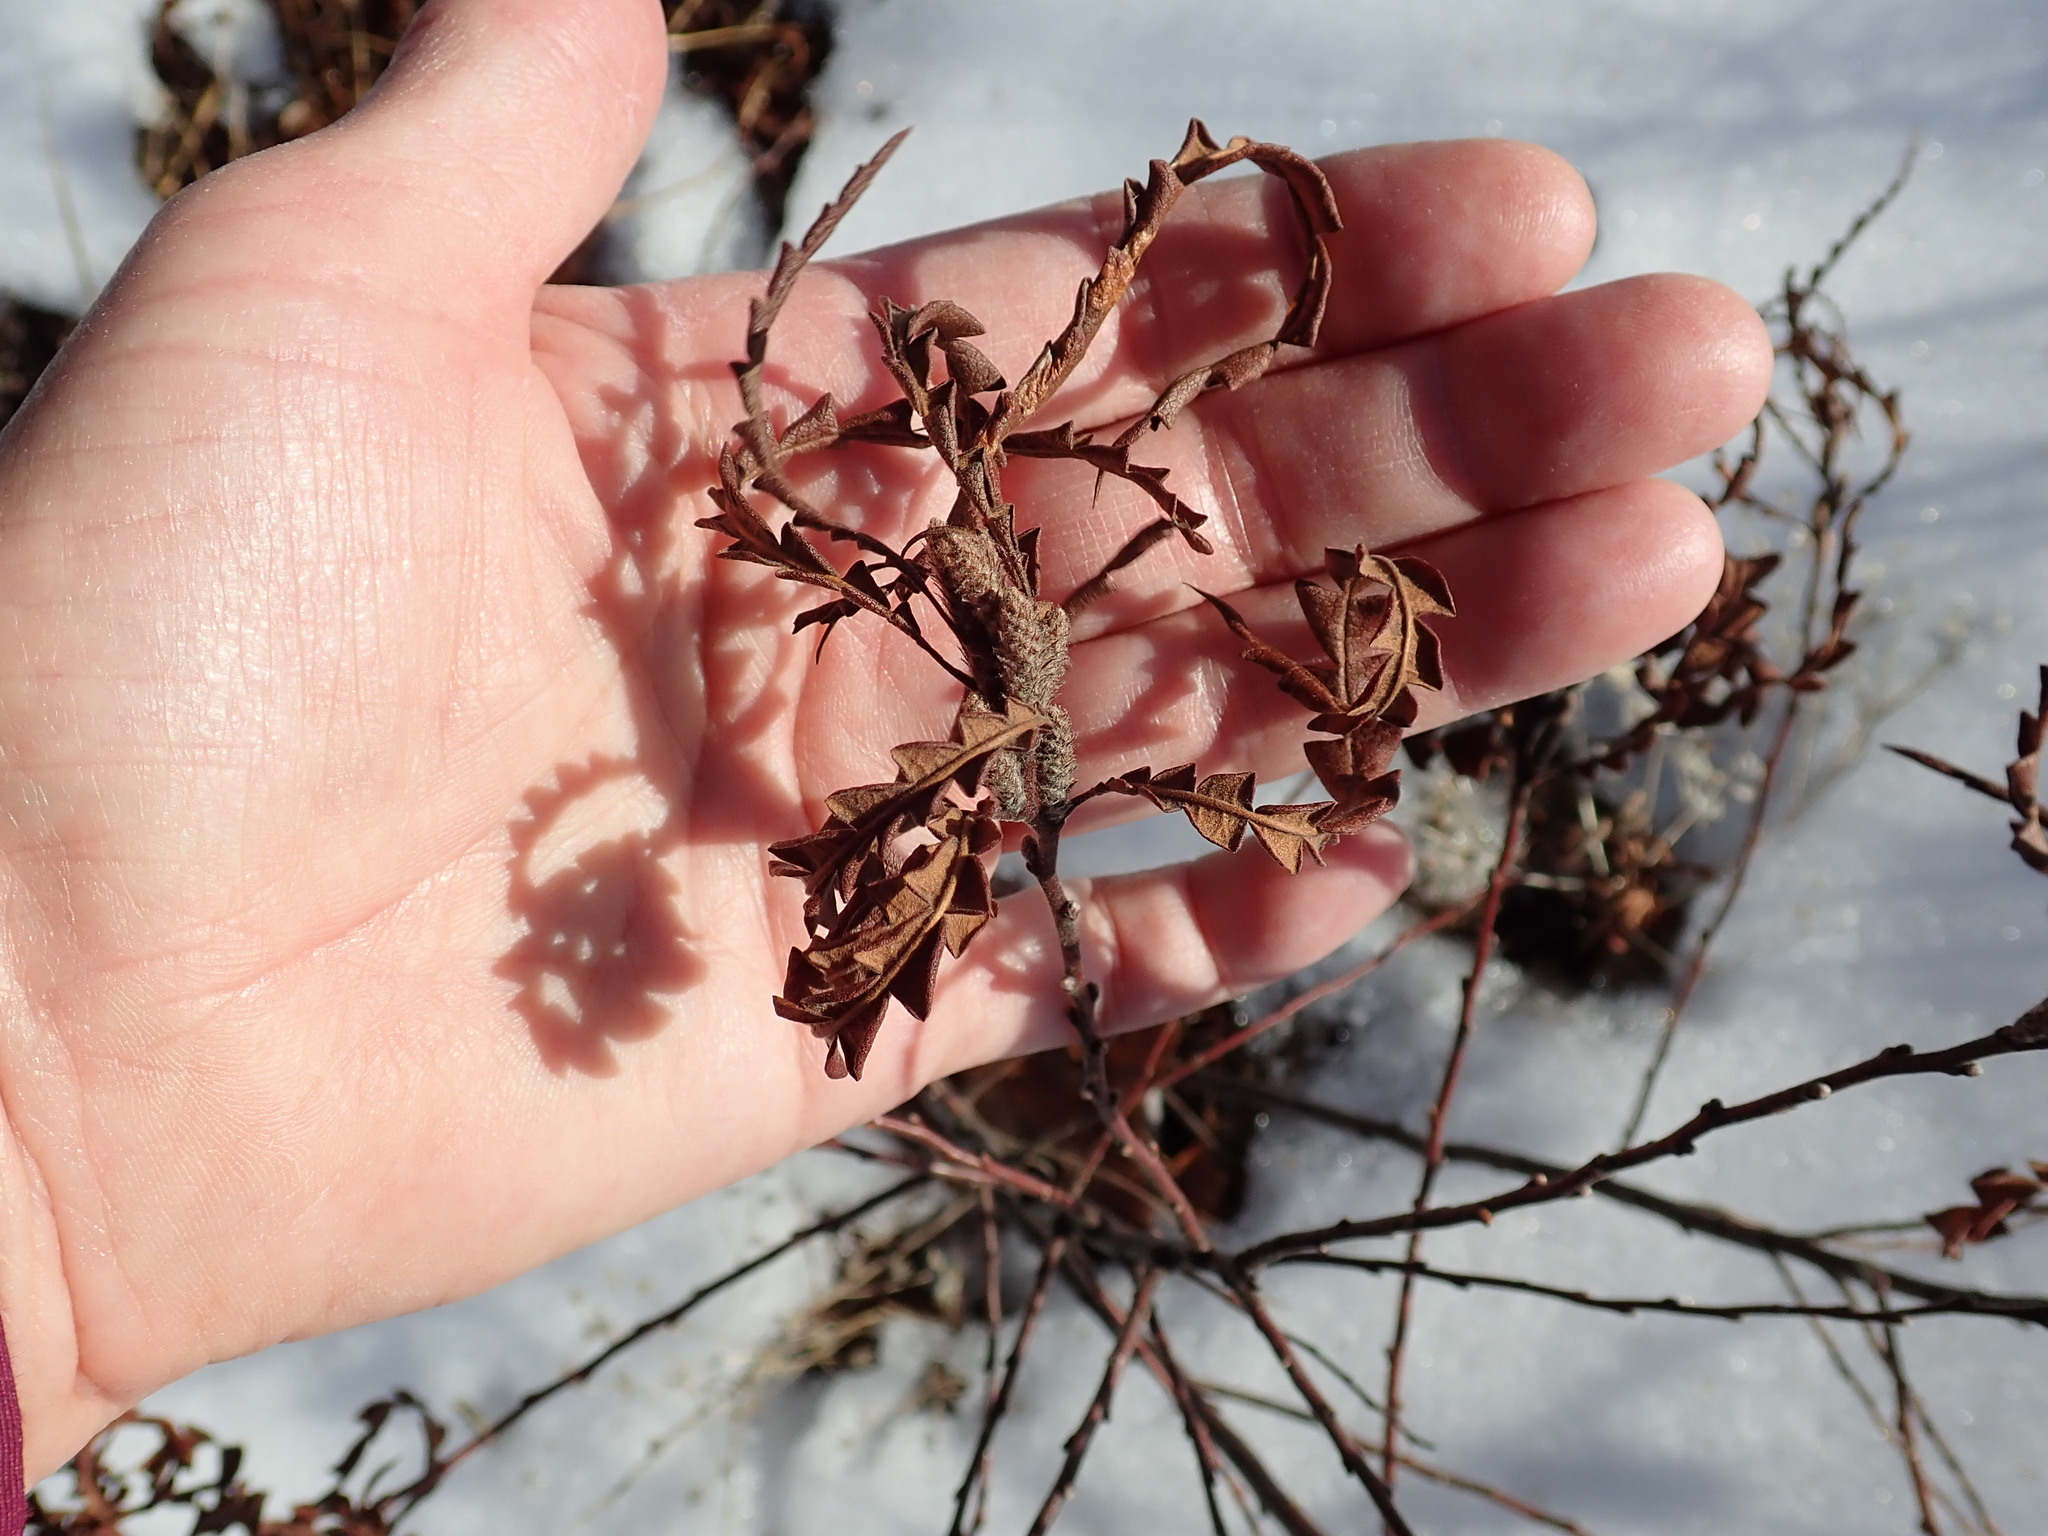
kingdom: Plantae
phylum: Tracheophyta
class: Magnoliopsida
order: Fagales
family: Myricaceae
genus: Comptonia
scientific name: Comptonia peregrina
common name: Sweet-fern
